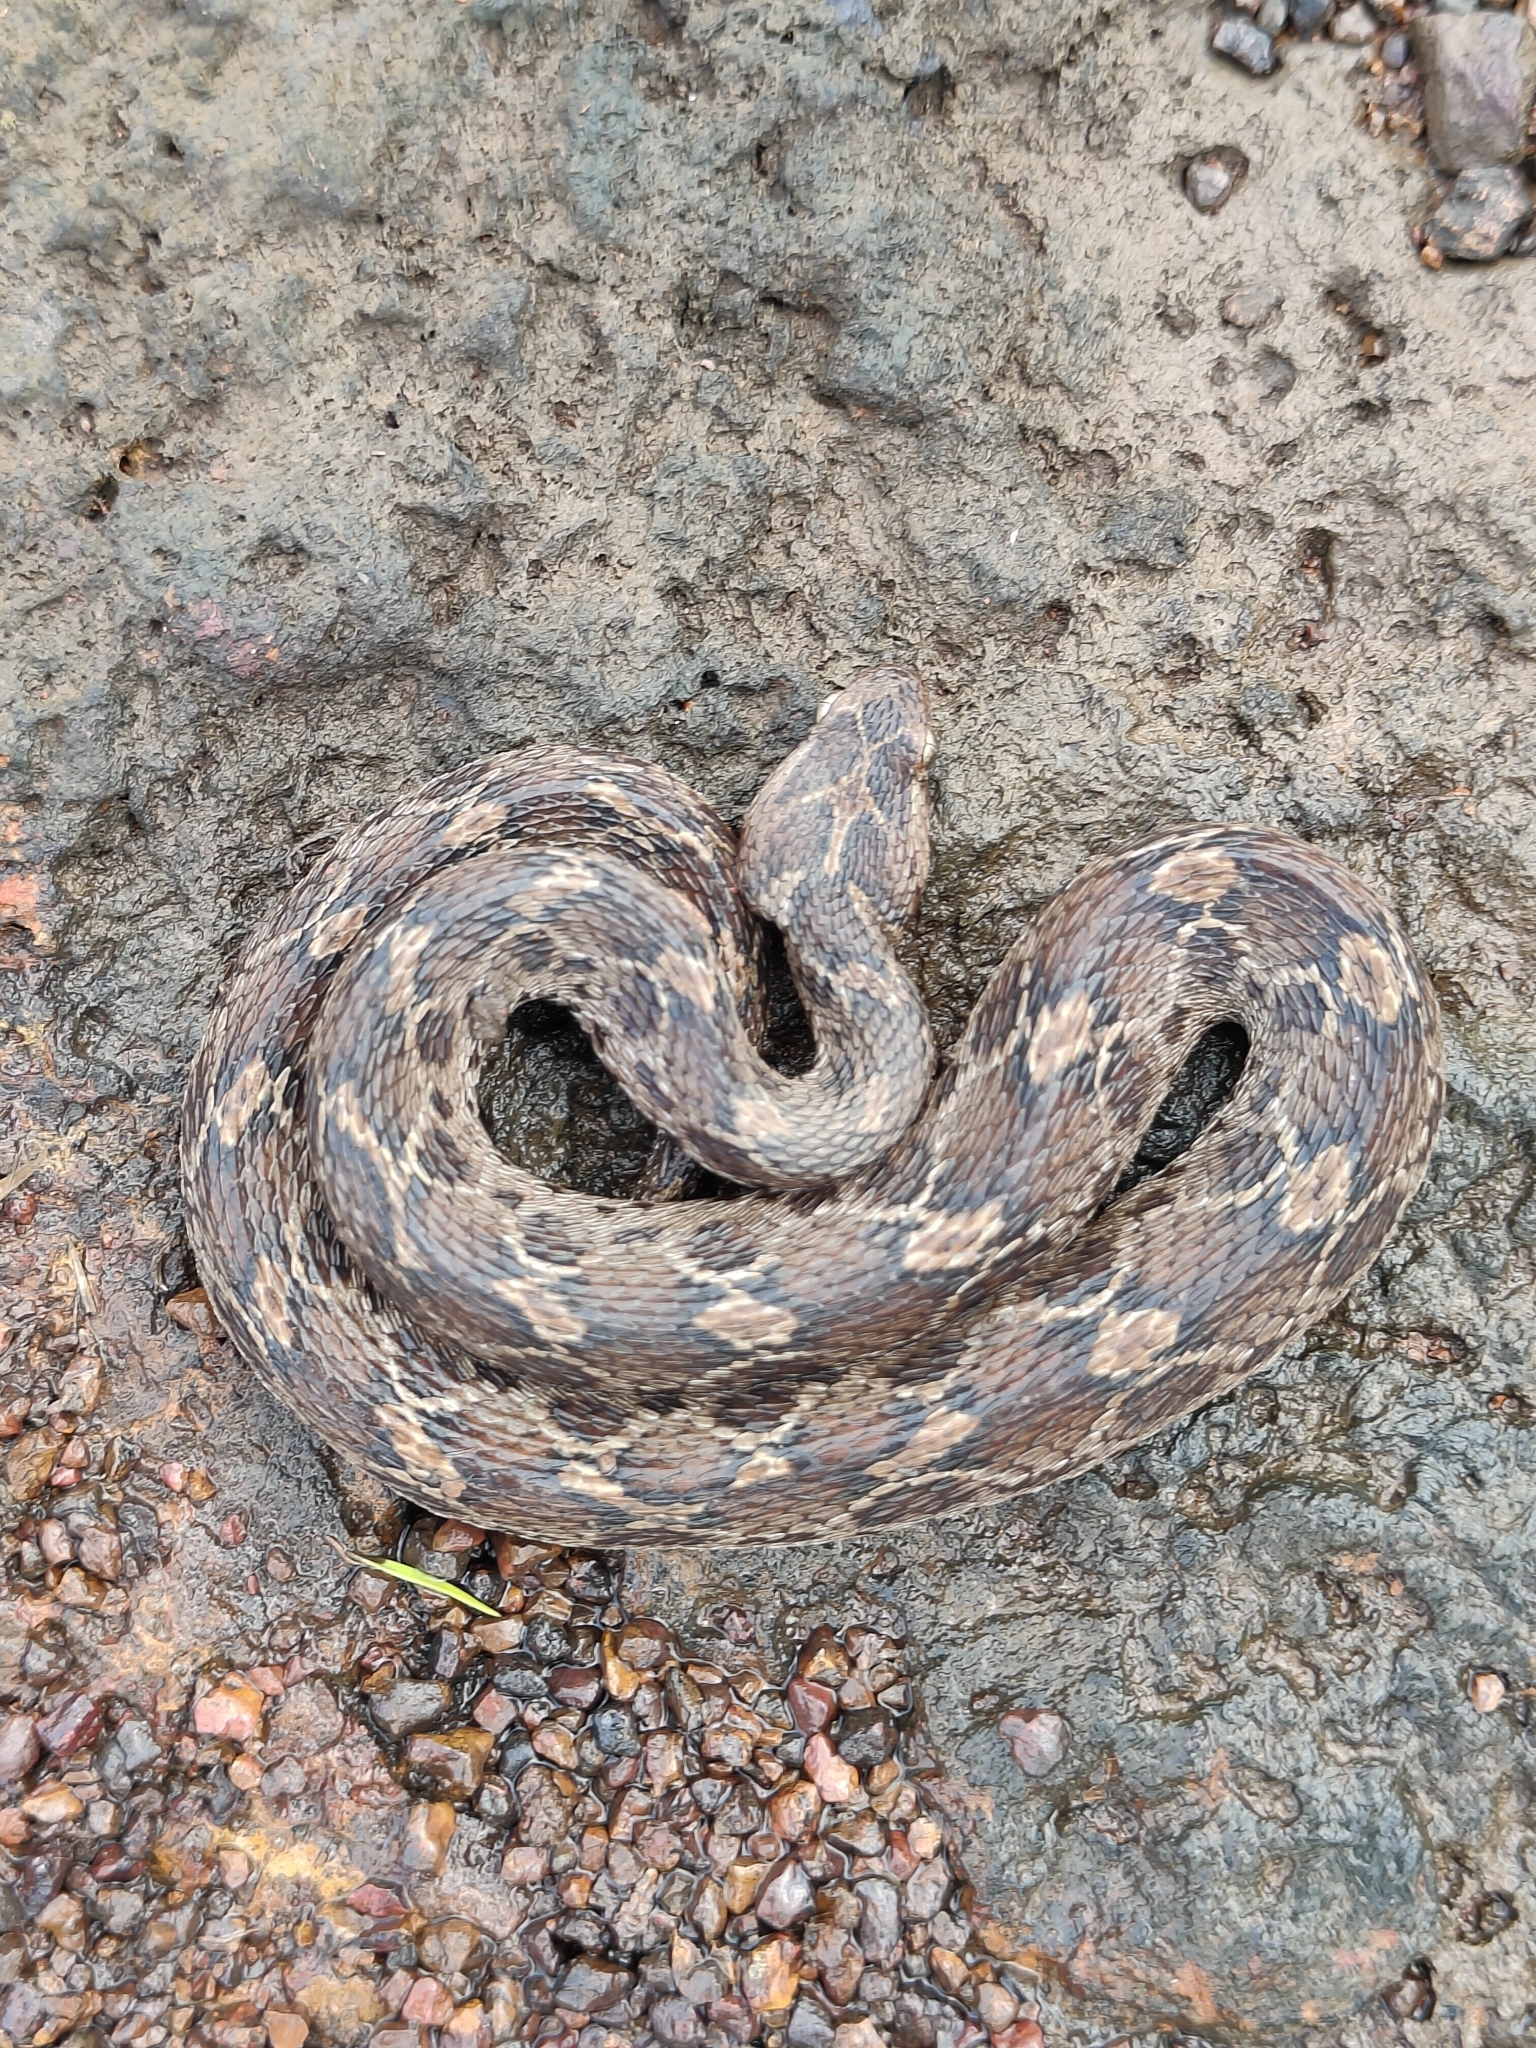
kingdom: Animalia
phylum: Chordata
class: Squamata
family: Viperidae
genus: Echis
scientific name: Echis carinatus
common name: Saw-scaled viper
